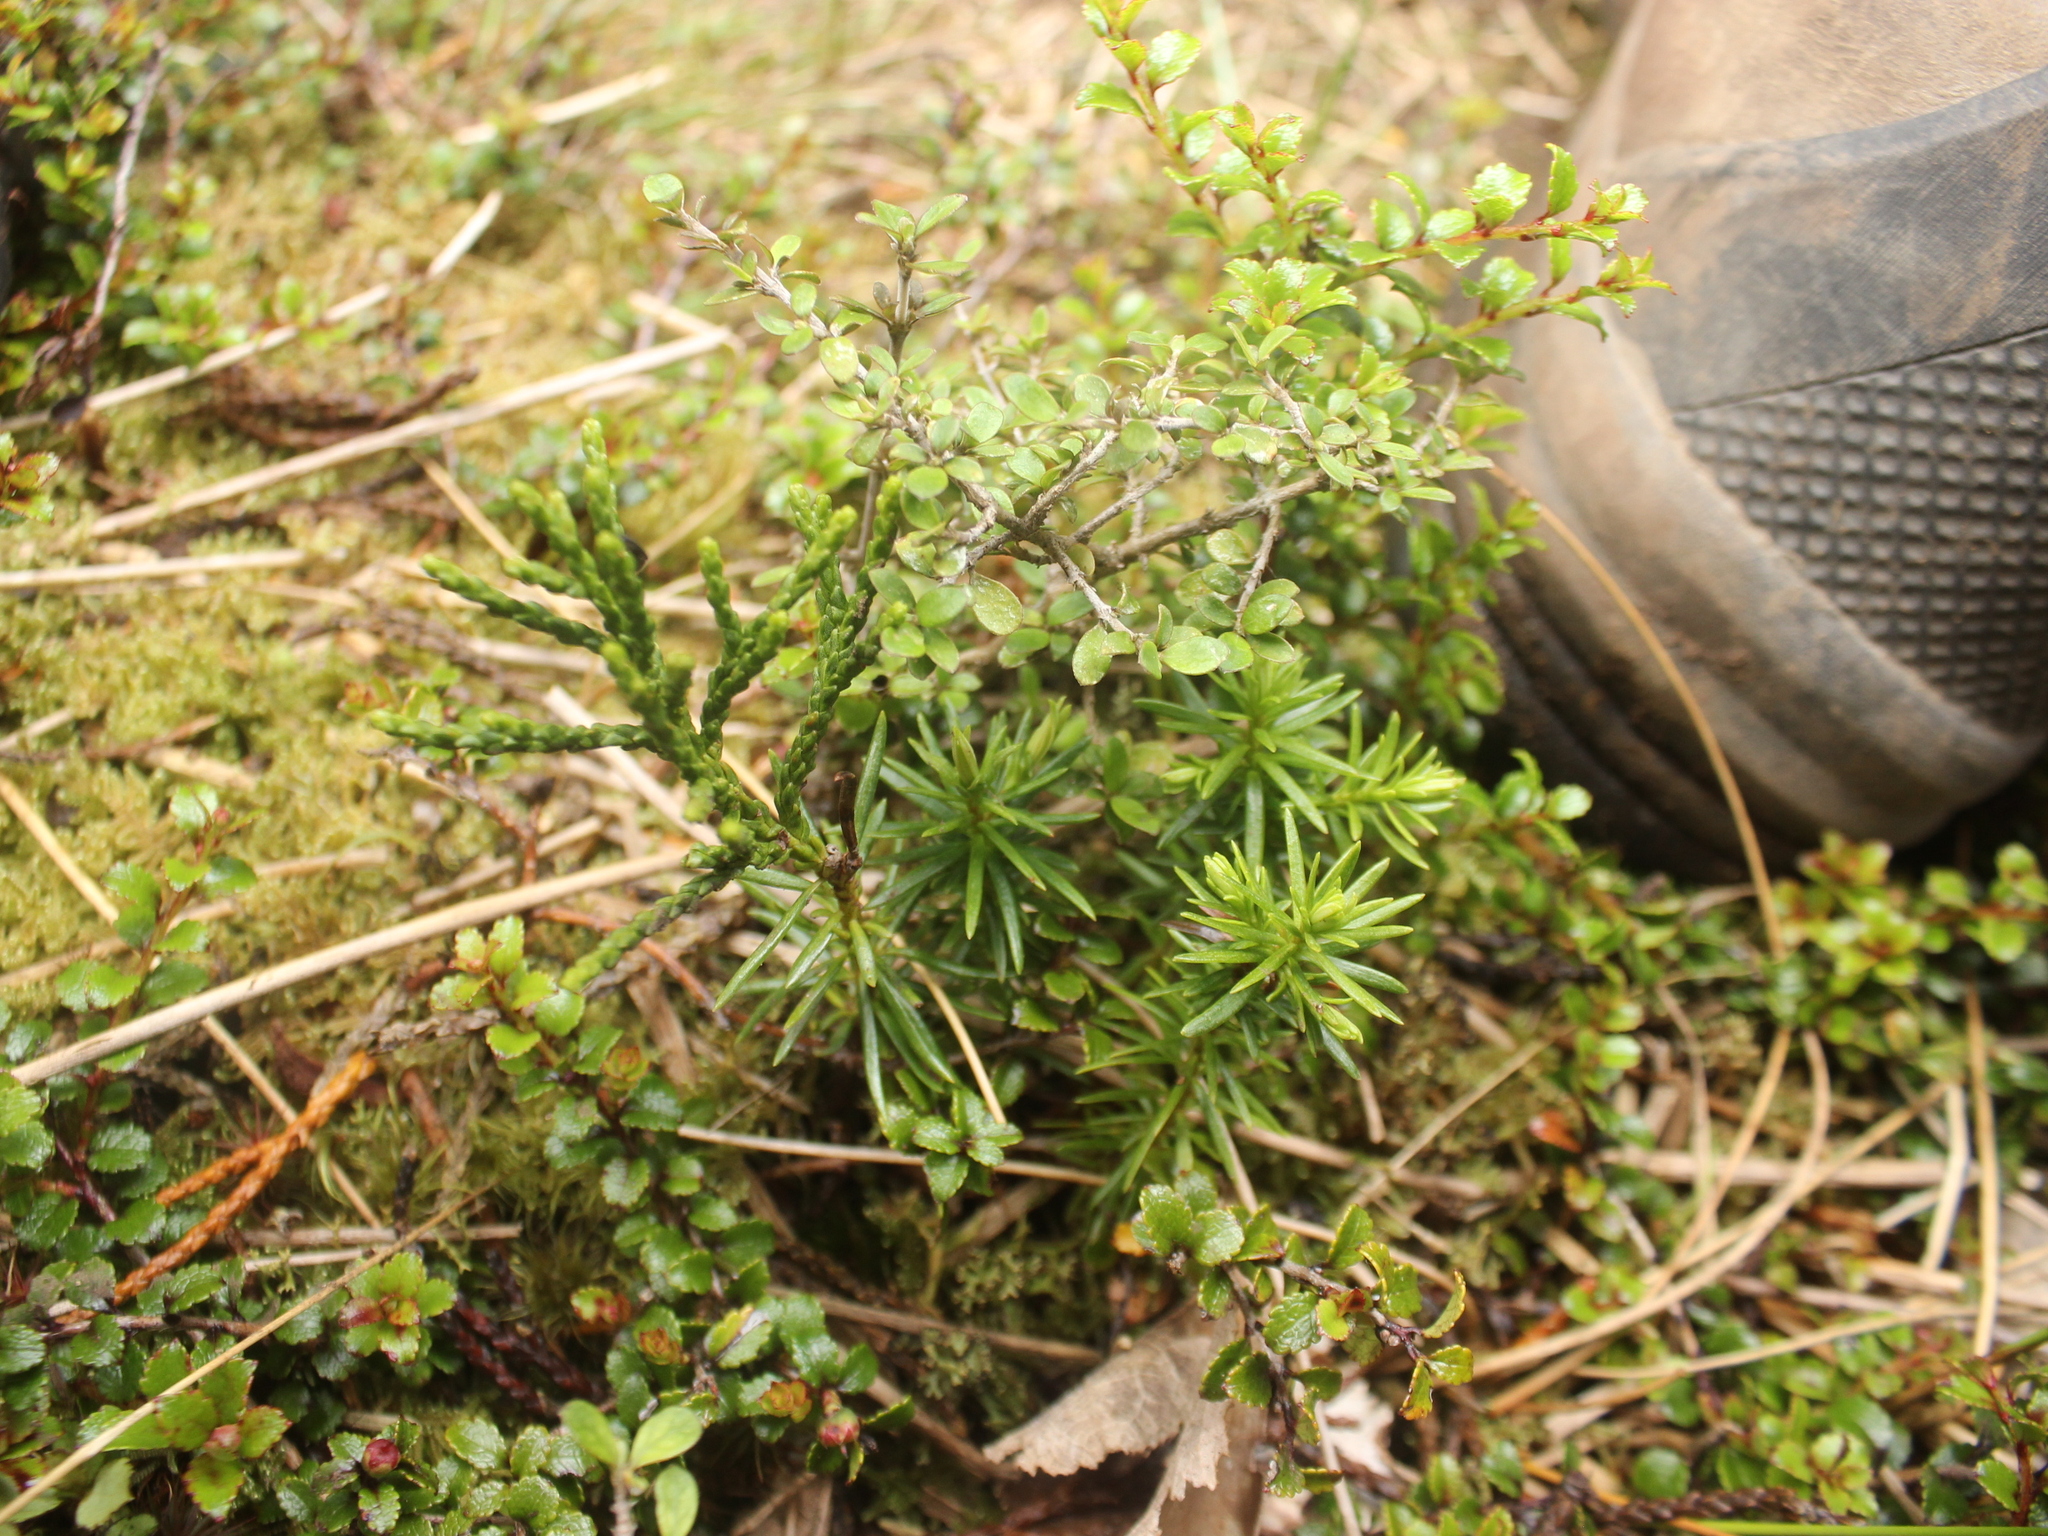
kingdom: Plantae
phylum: Tracheophyta
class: Pinopsida
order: Pinales
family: Podocarpaceae
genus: Halocarpus
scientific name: Halocarpus biformis
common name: Alpine tarwood
